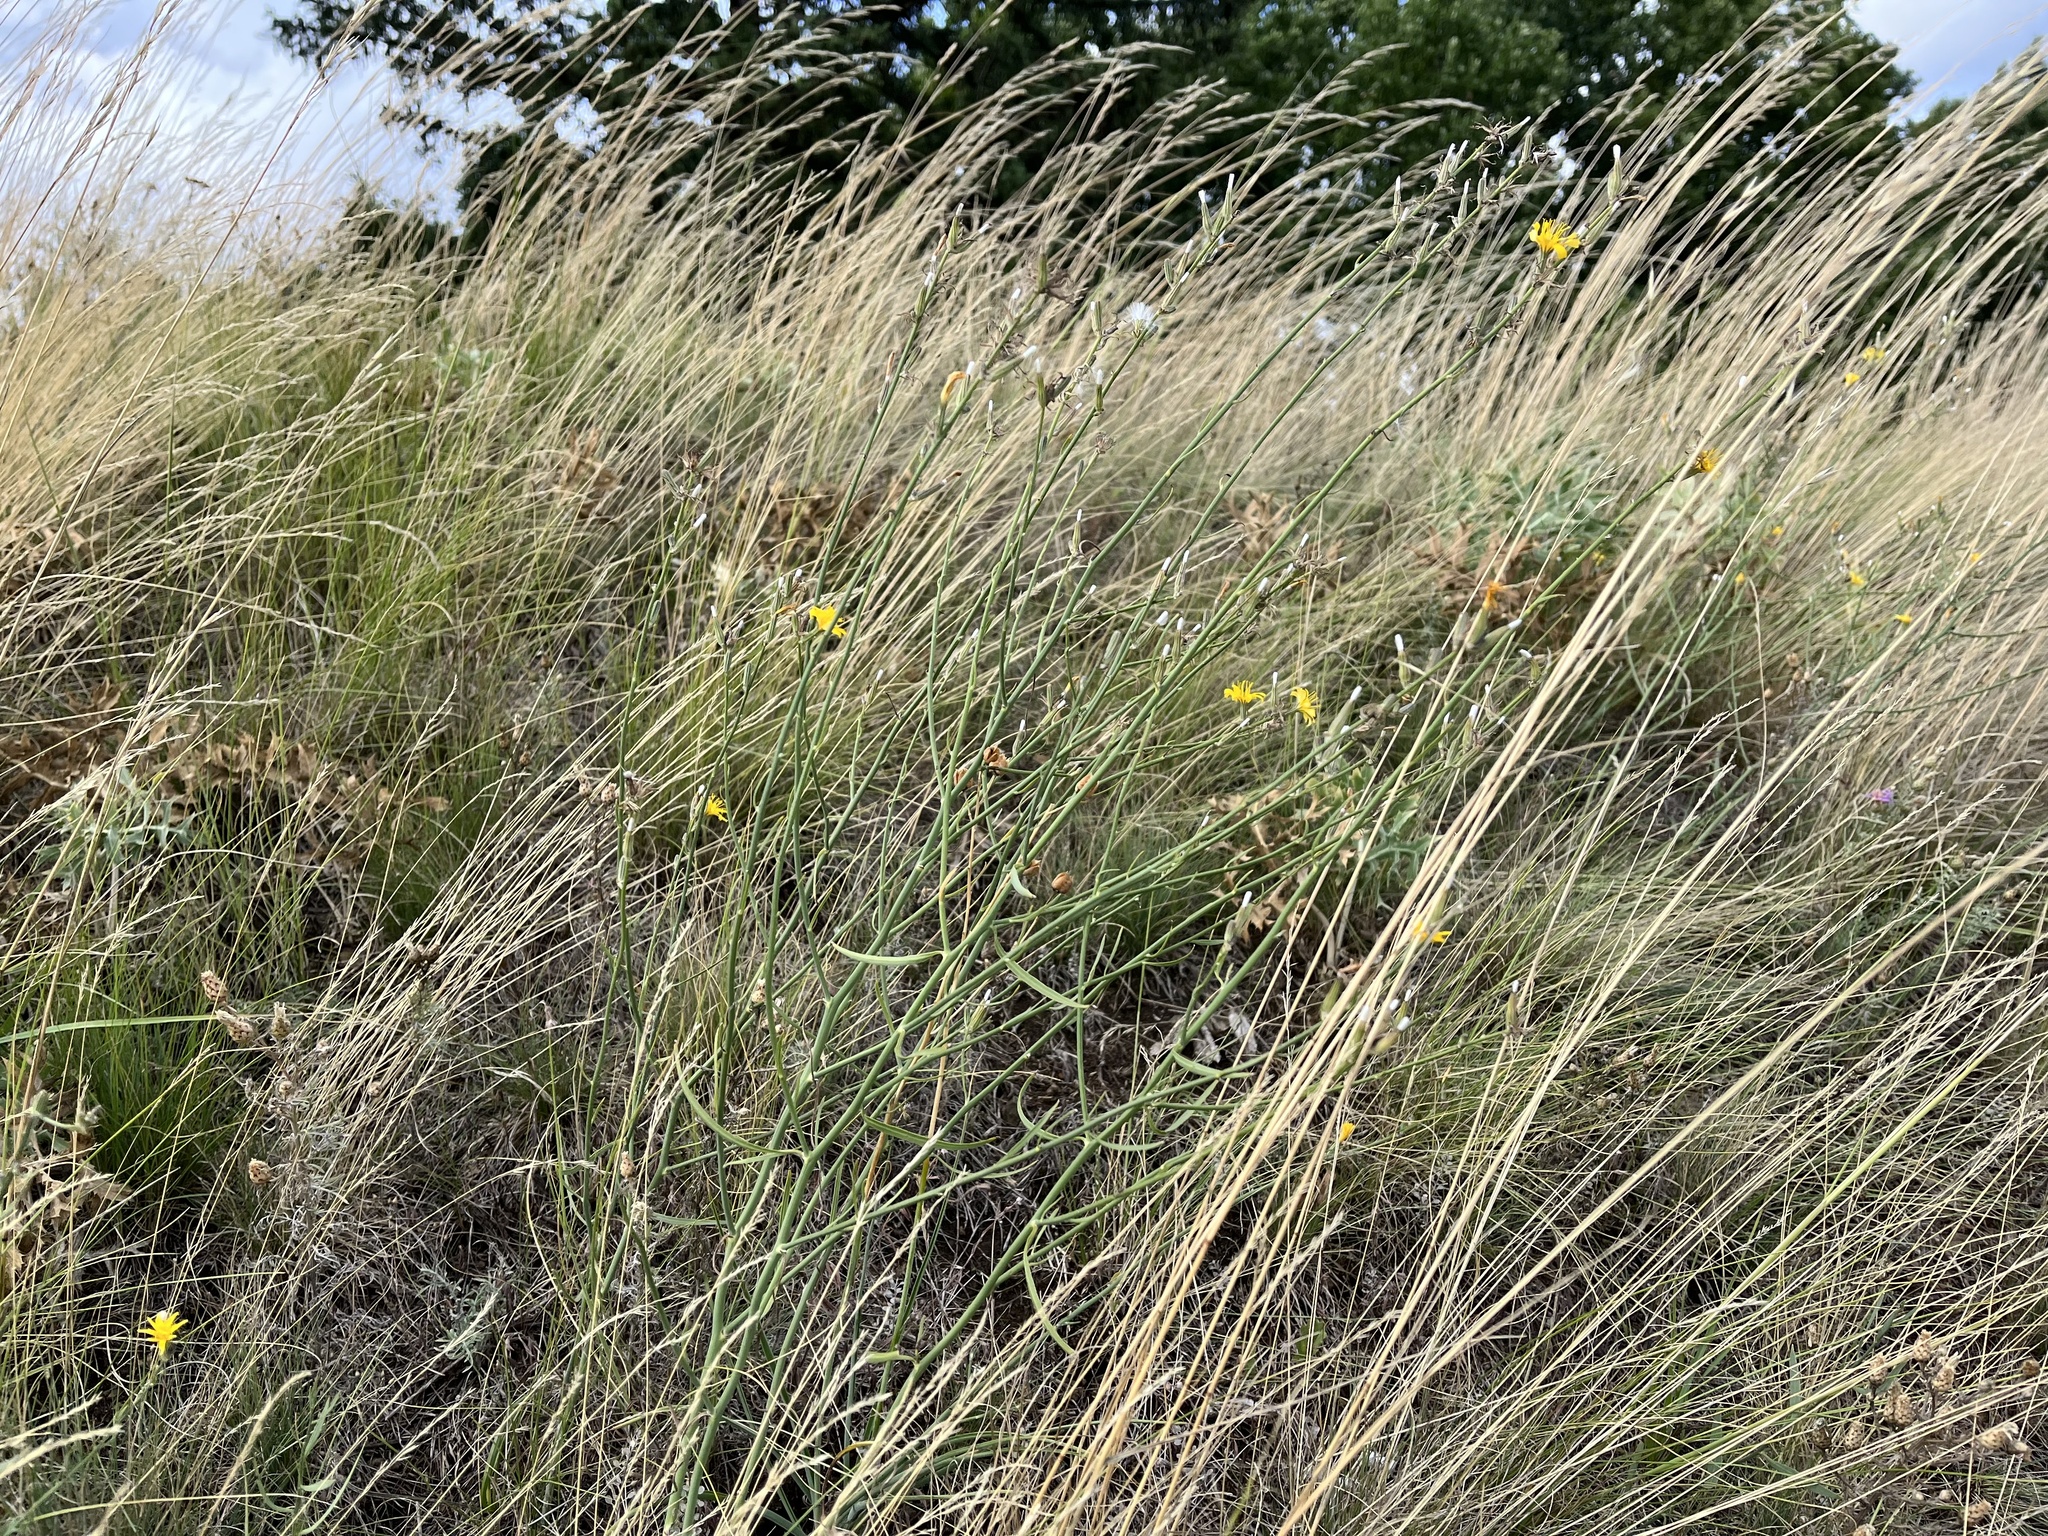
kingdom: Plantae
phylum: Tracheophyta
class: Magnoliopsida
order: Asterales
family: Asteraceae
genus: Chondrilla
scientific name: Chondrilla juncea
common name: Skeleton weed
